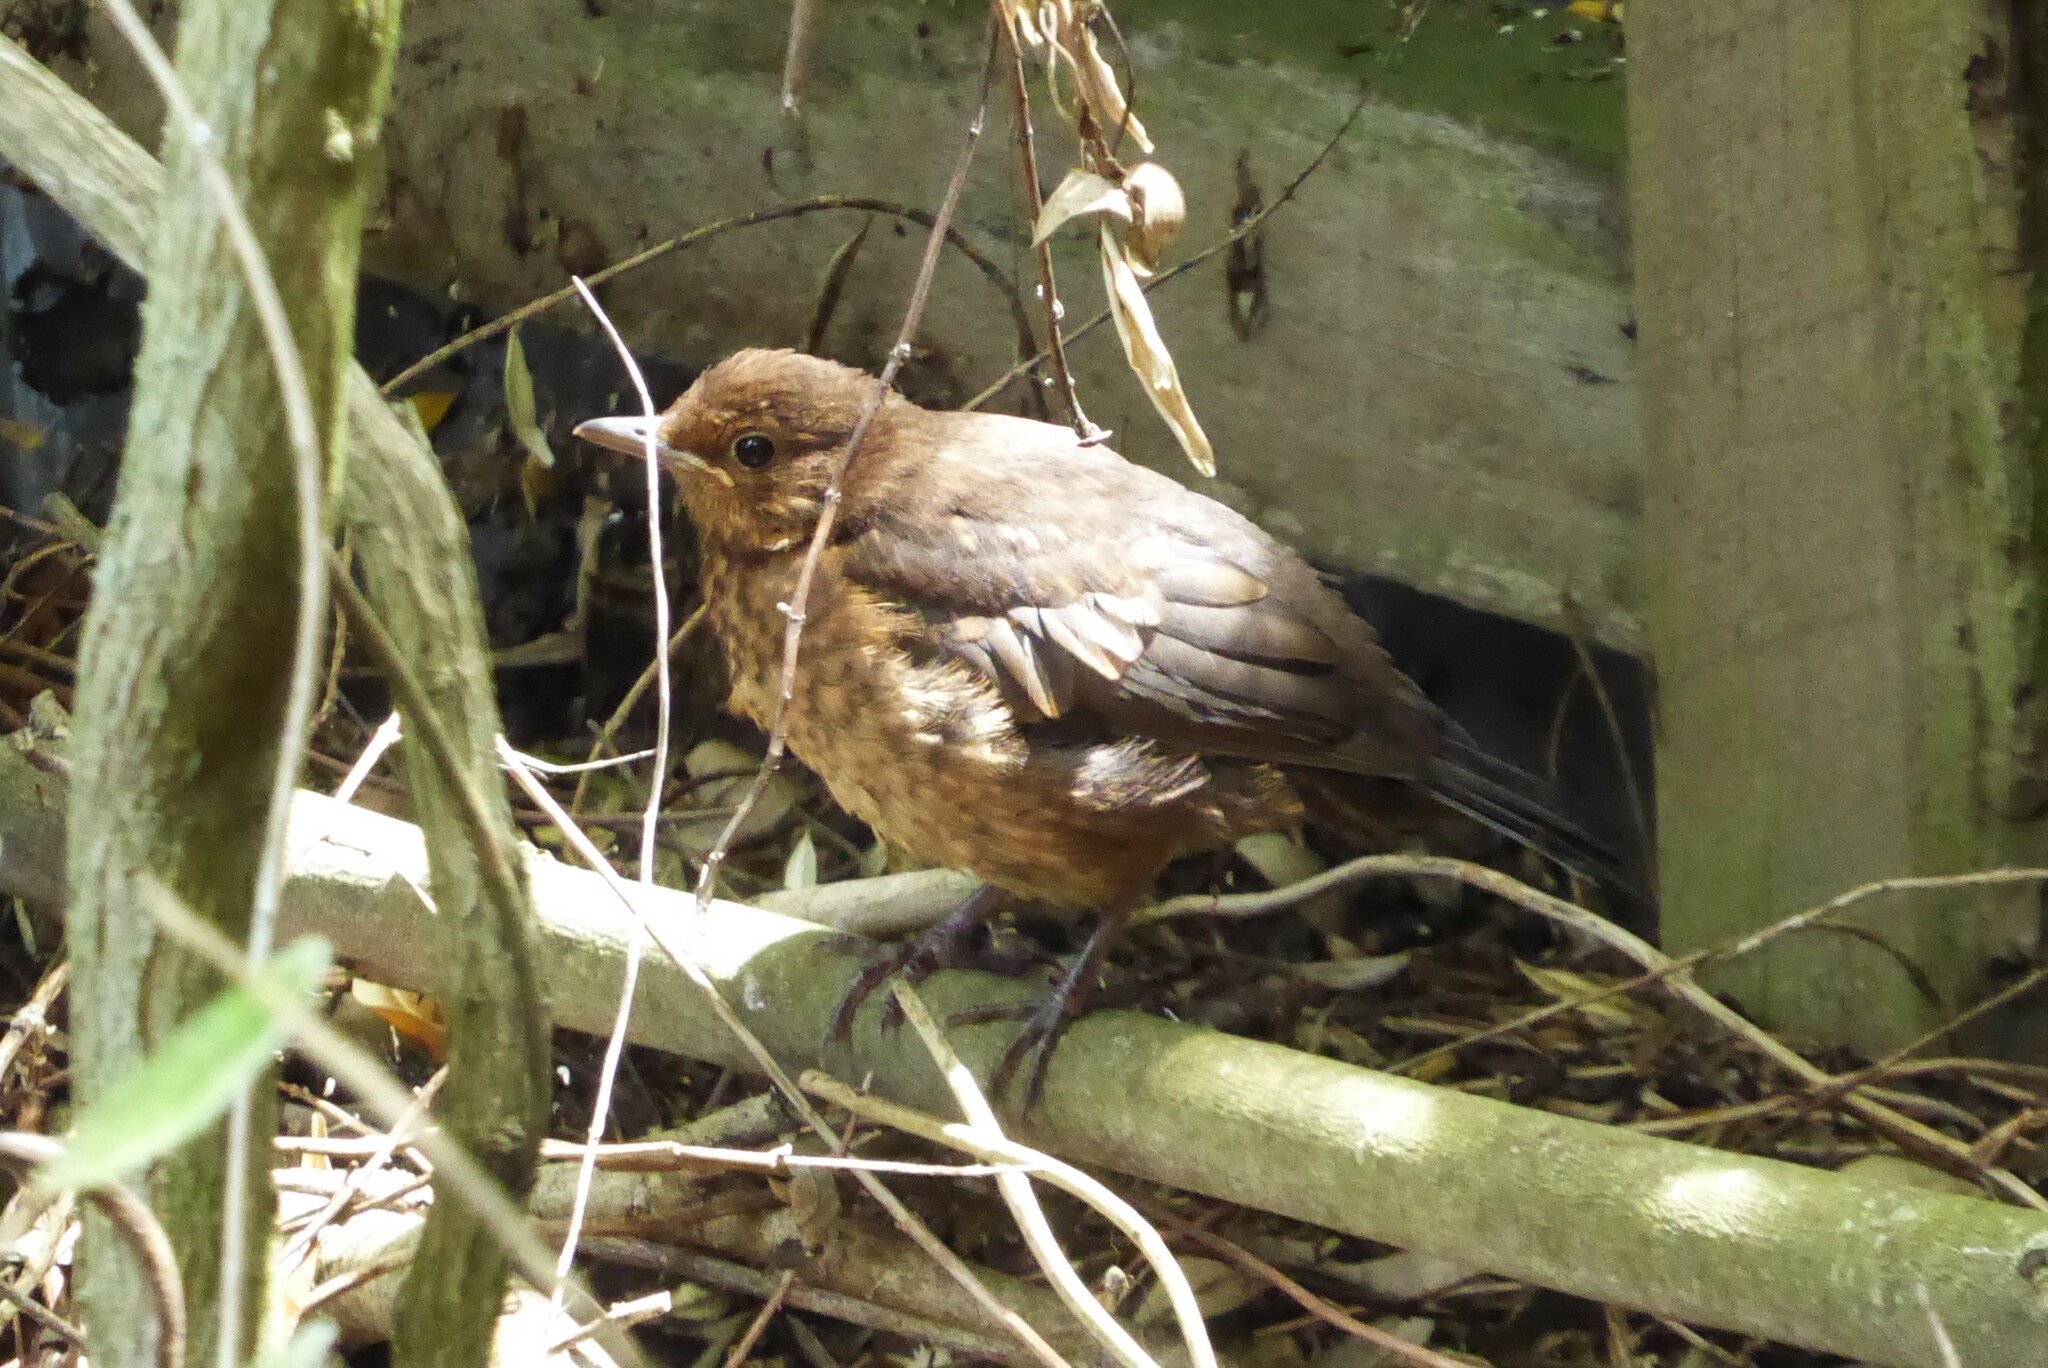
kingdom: Animalia
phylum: Chordata
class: Aves
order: Passeriformes
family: Turdidae
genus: Turdus
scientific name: Turdus merula
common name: Common blackbird
